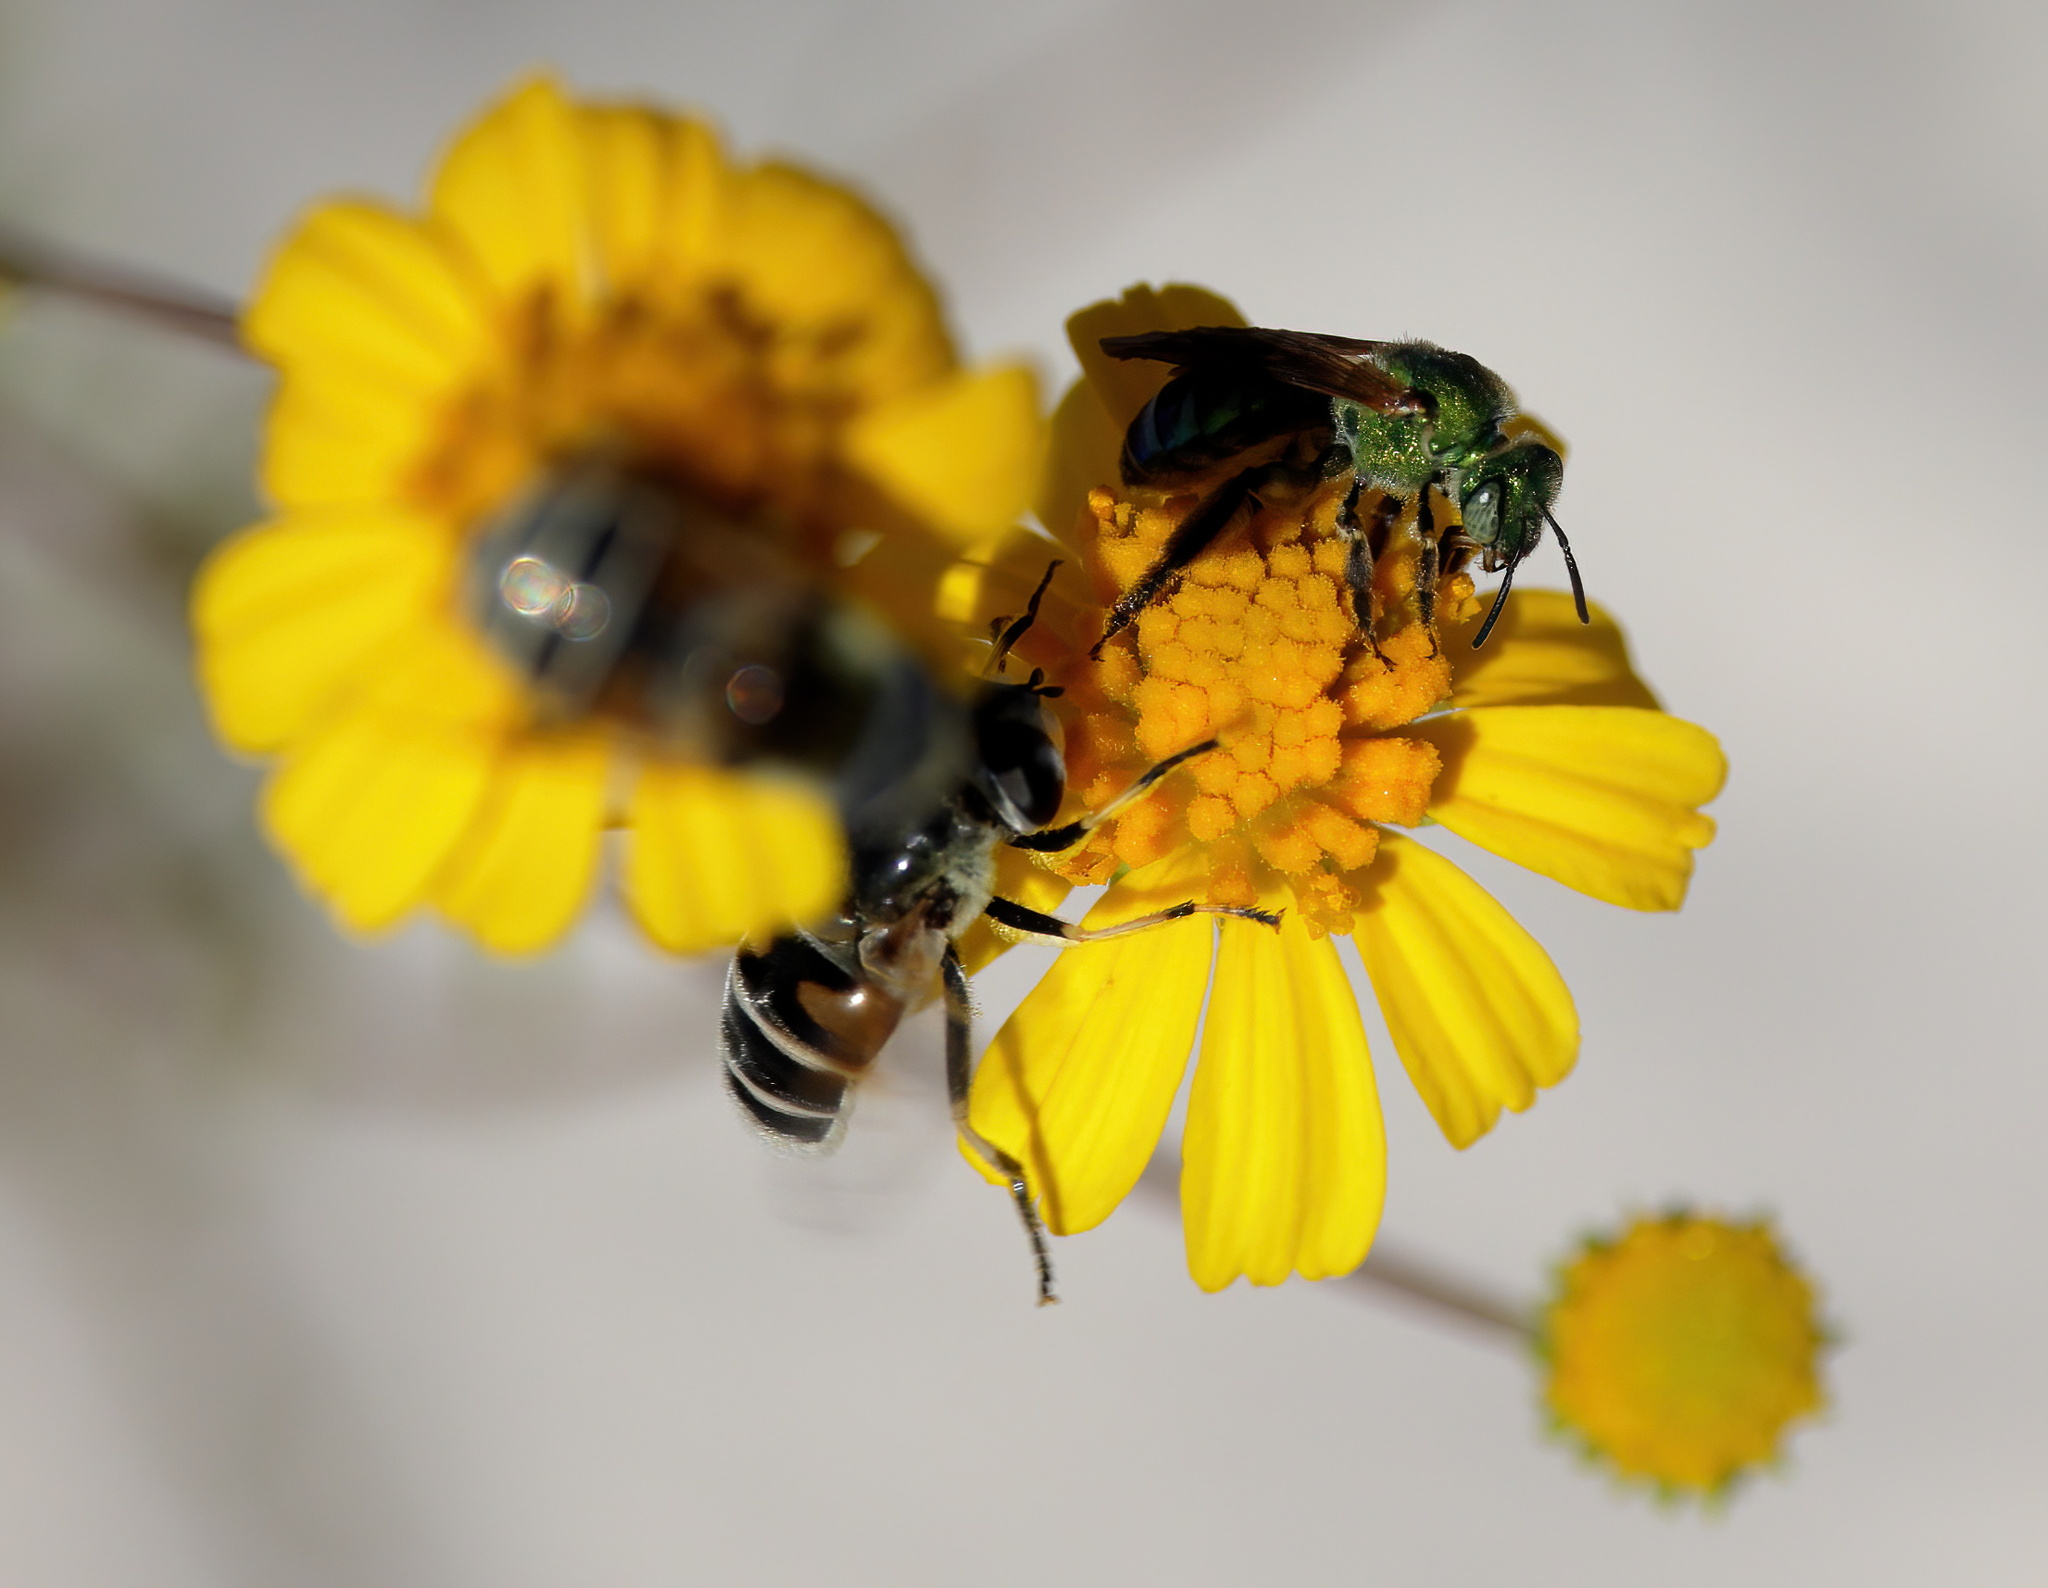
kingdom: Animalia
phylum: Arthropoda
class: Insecta
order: Hymenoptera
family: Halictidae
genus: Agapostemon
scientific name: Agapostemon splendens
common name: Brown-winged striped sweat bee
